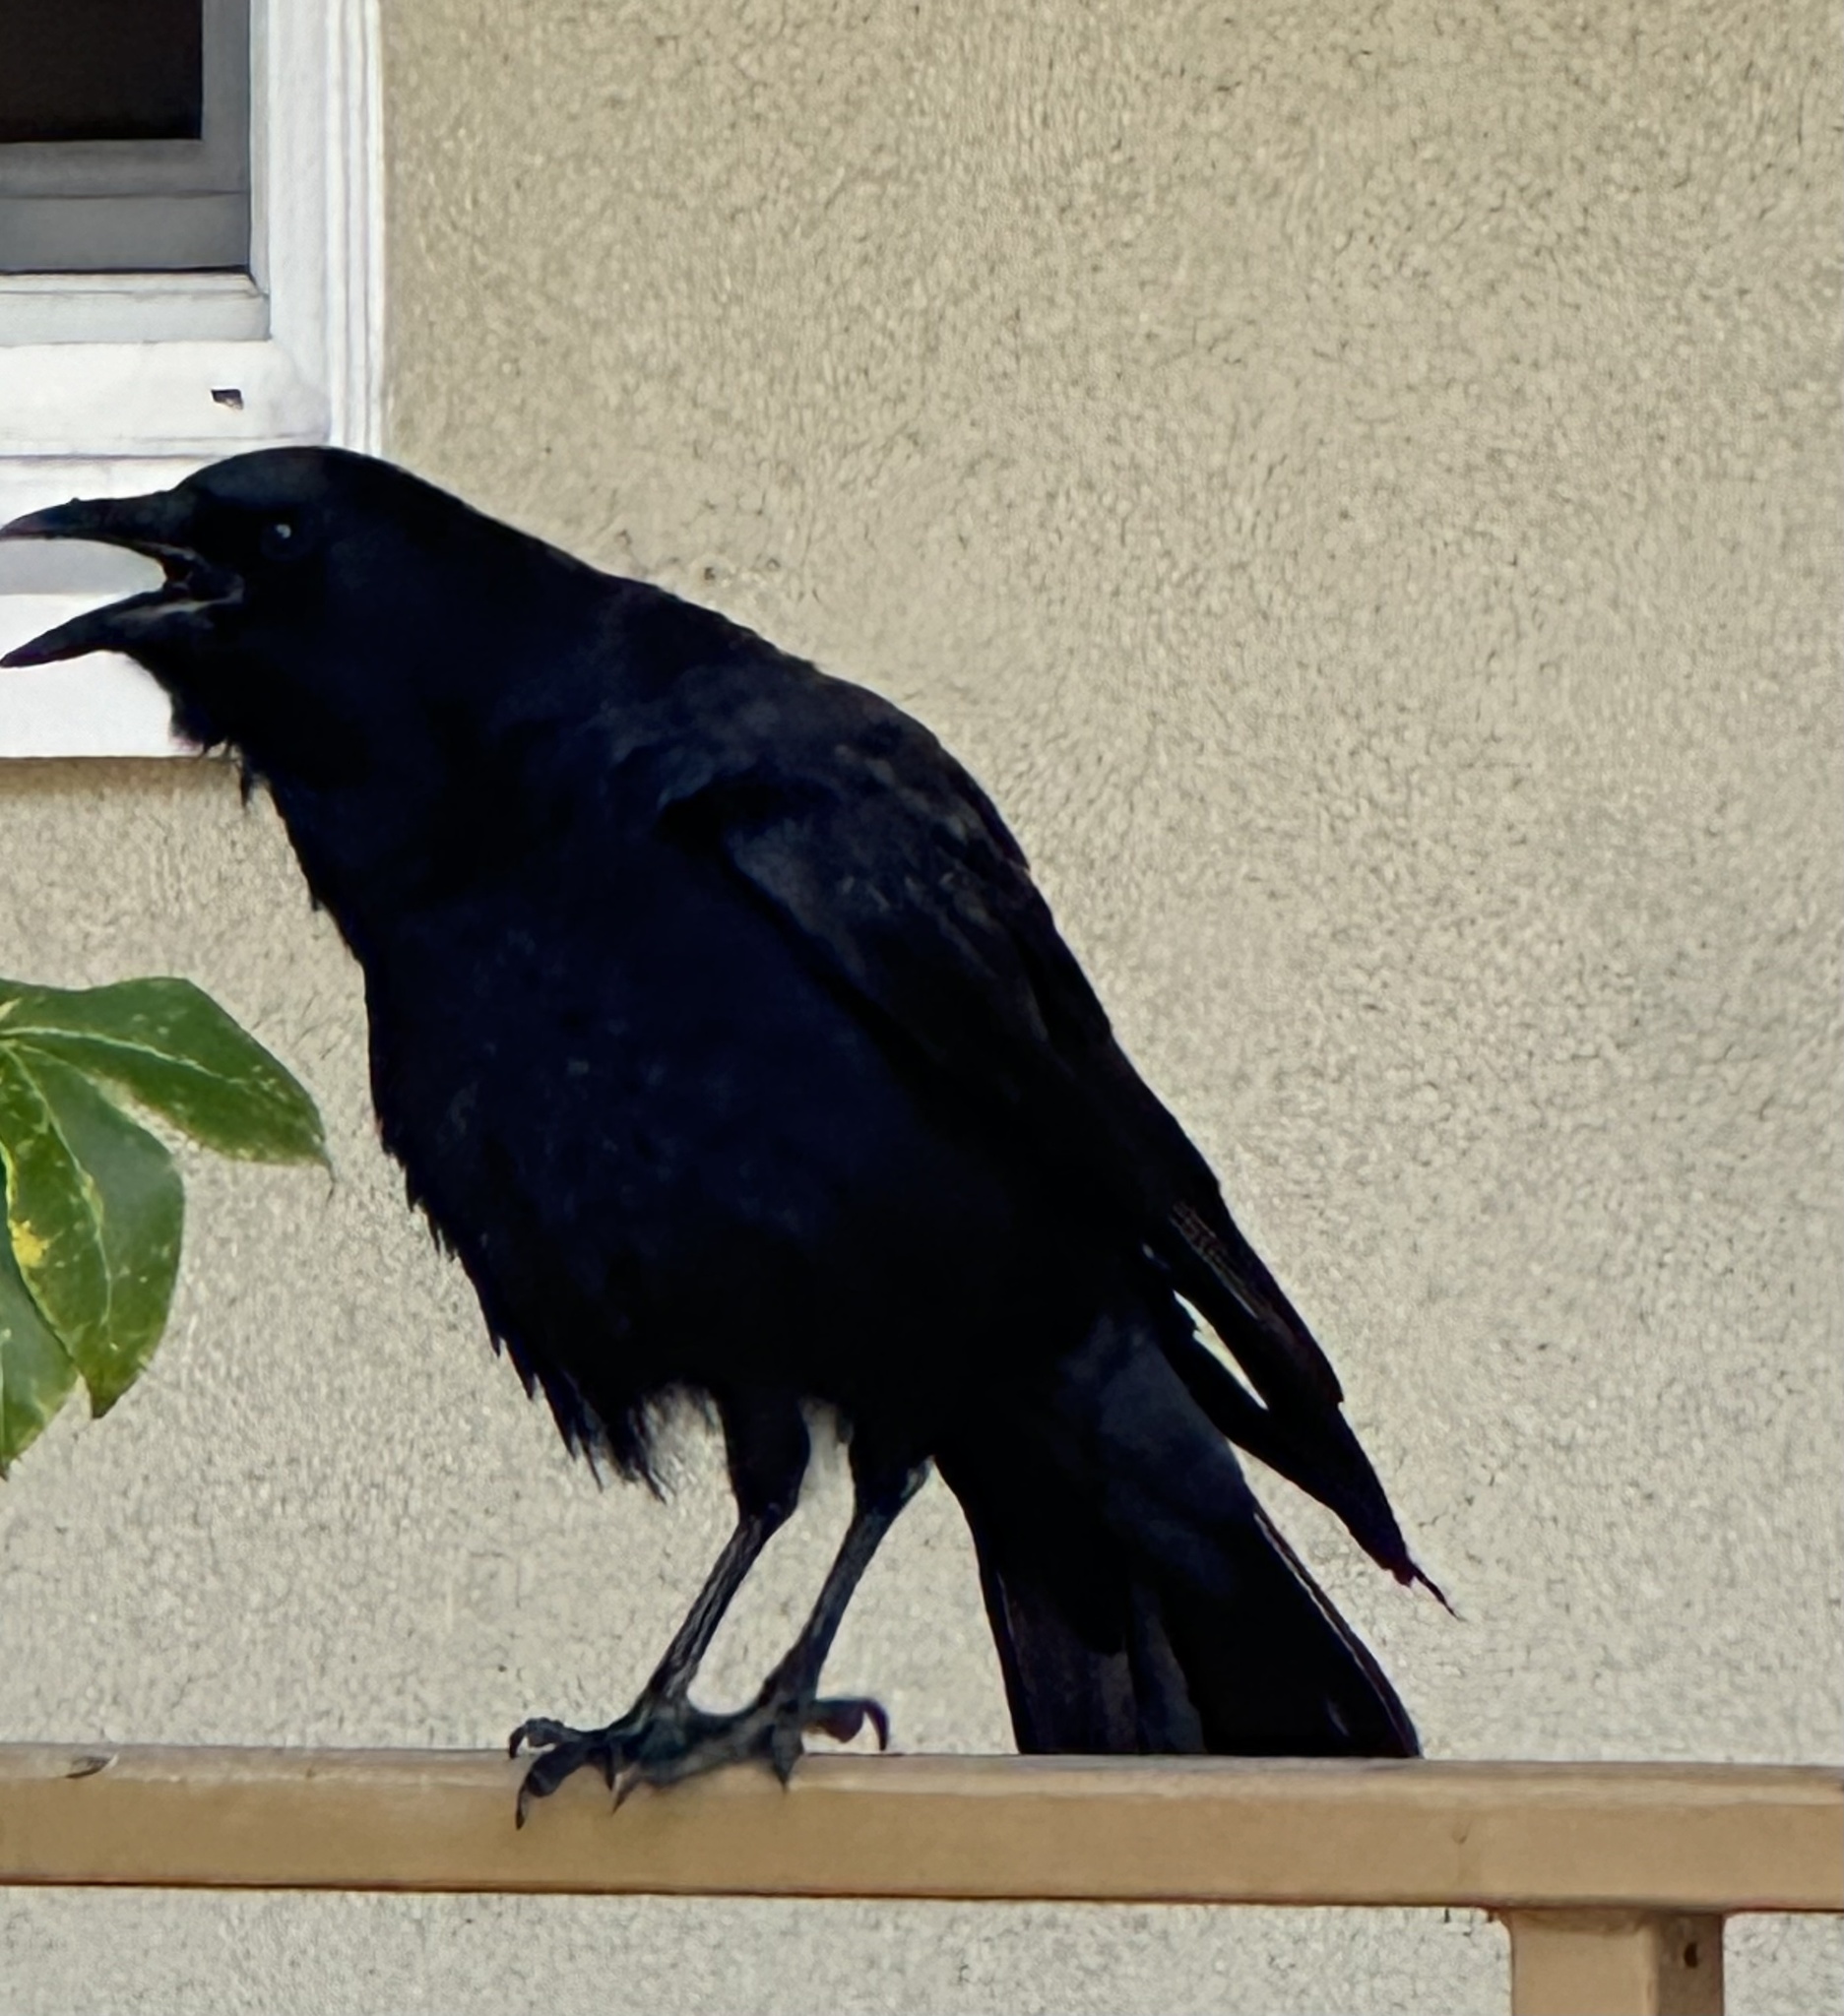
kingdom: Animalia
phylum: Chordata
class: Aves
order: Passeriformes
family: Corvidae
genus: Corvus
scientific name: Corvus brachyrhynchos
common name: American crow
